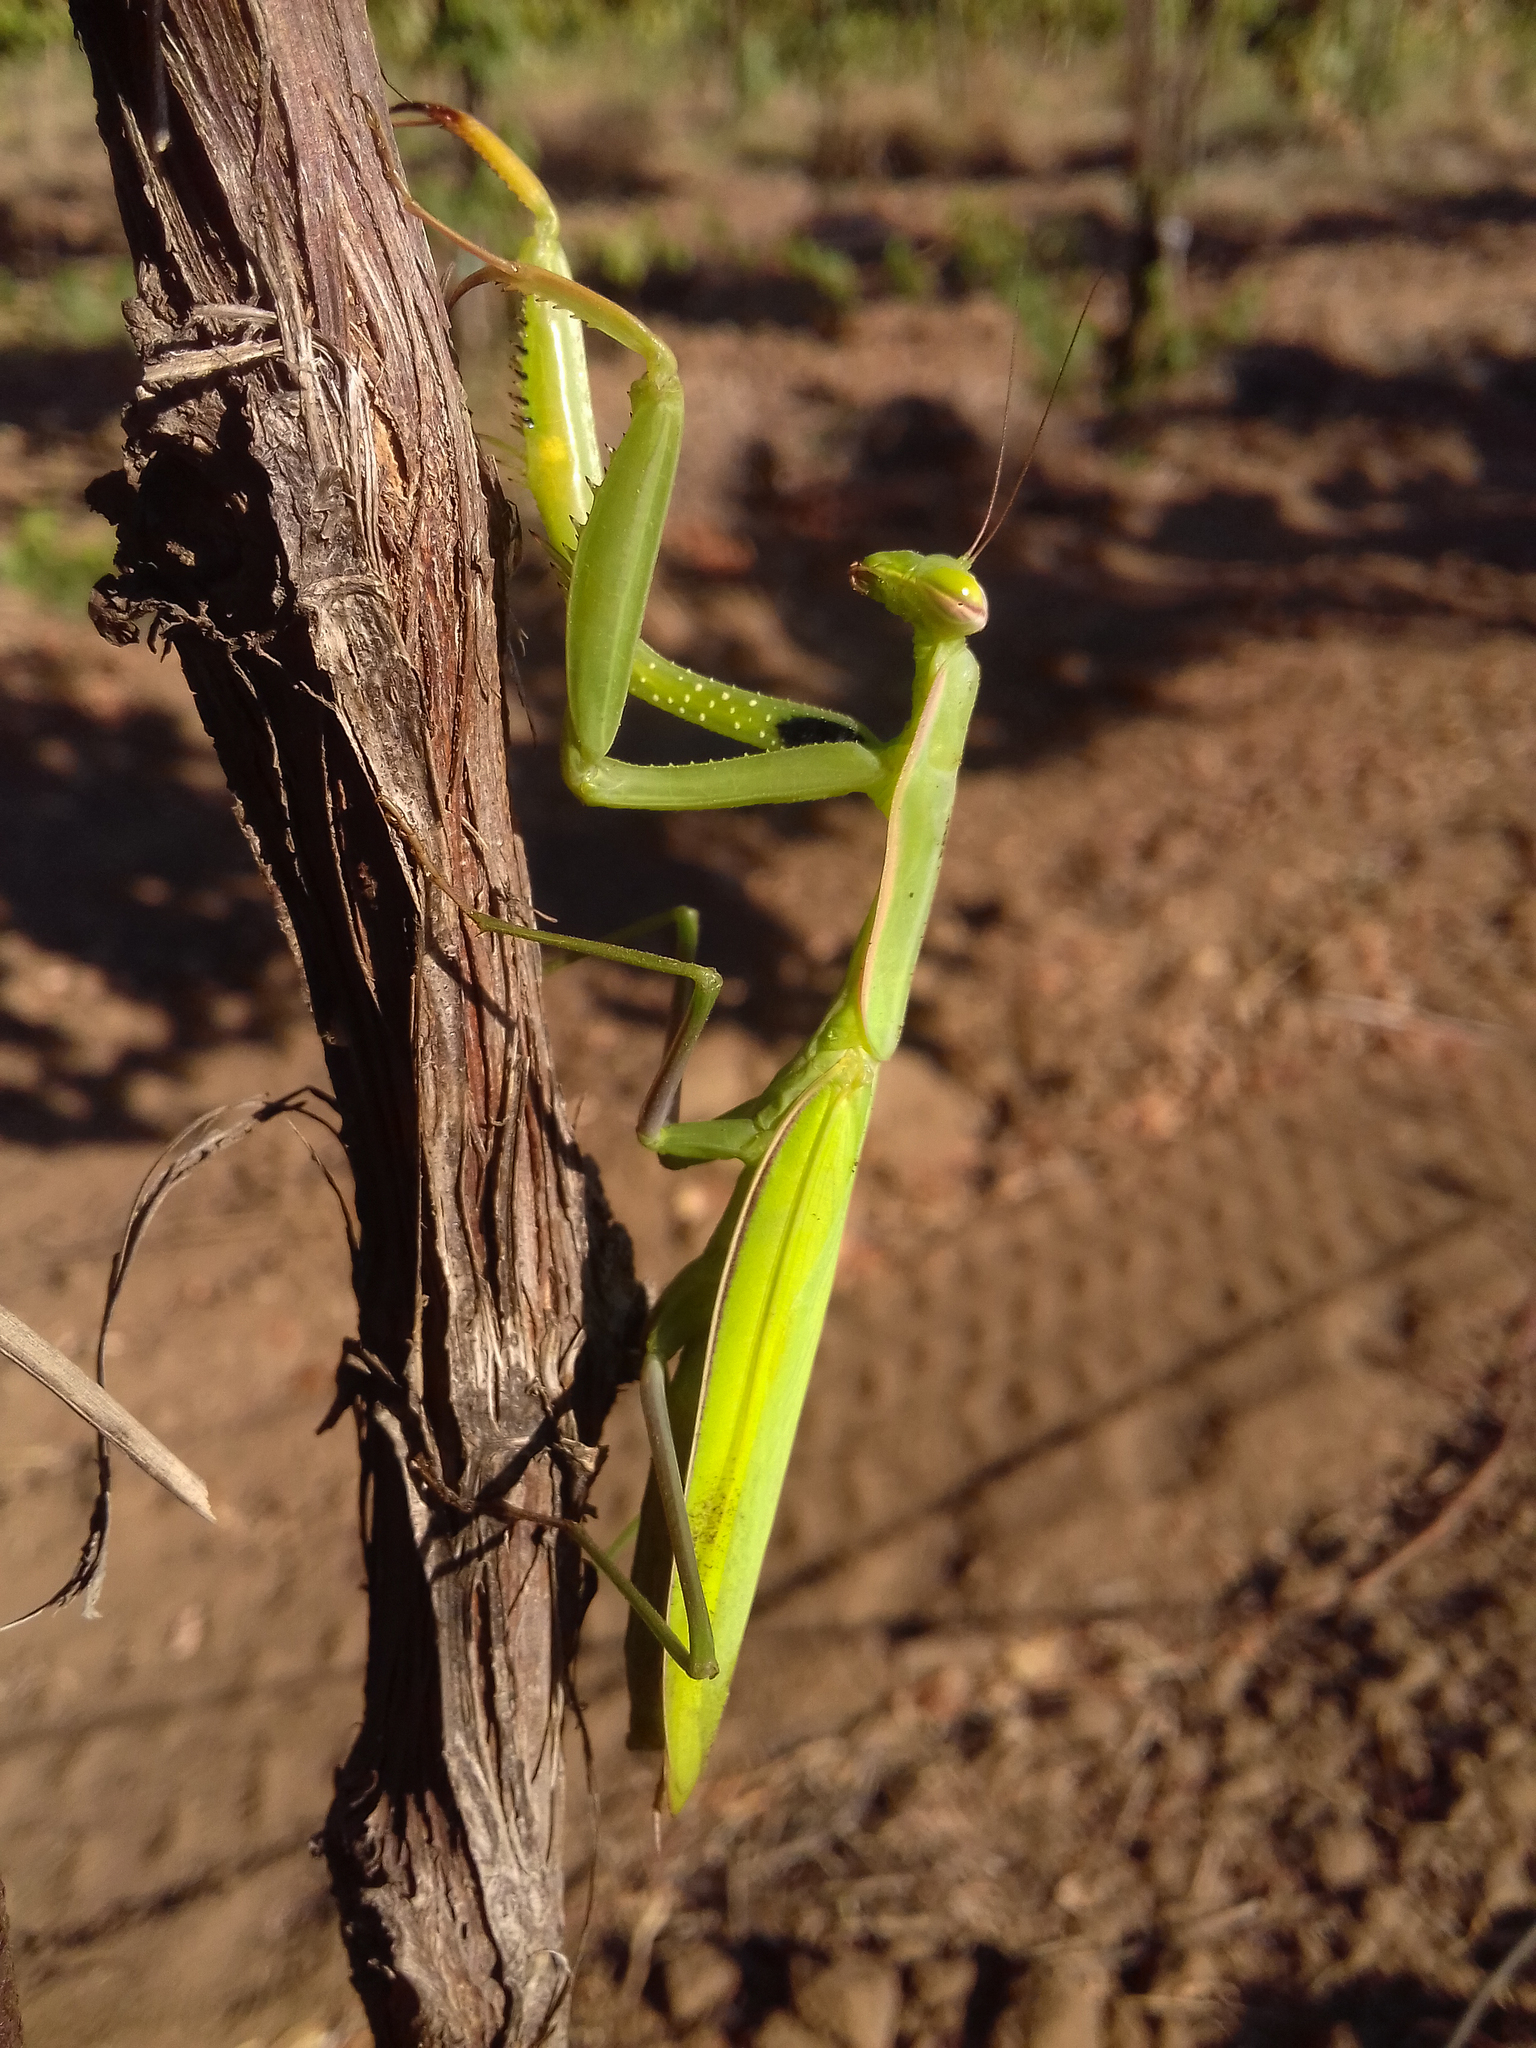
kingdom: Animalia
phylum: Arthropoda
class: Insecta
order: Mantodea
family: Mantidae
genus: Mantis
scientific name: Mantis religiosa
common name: Praying mantis
